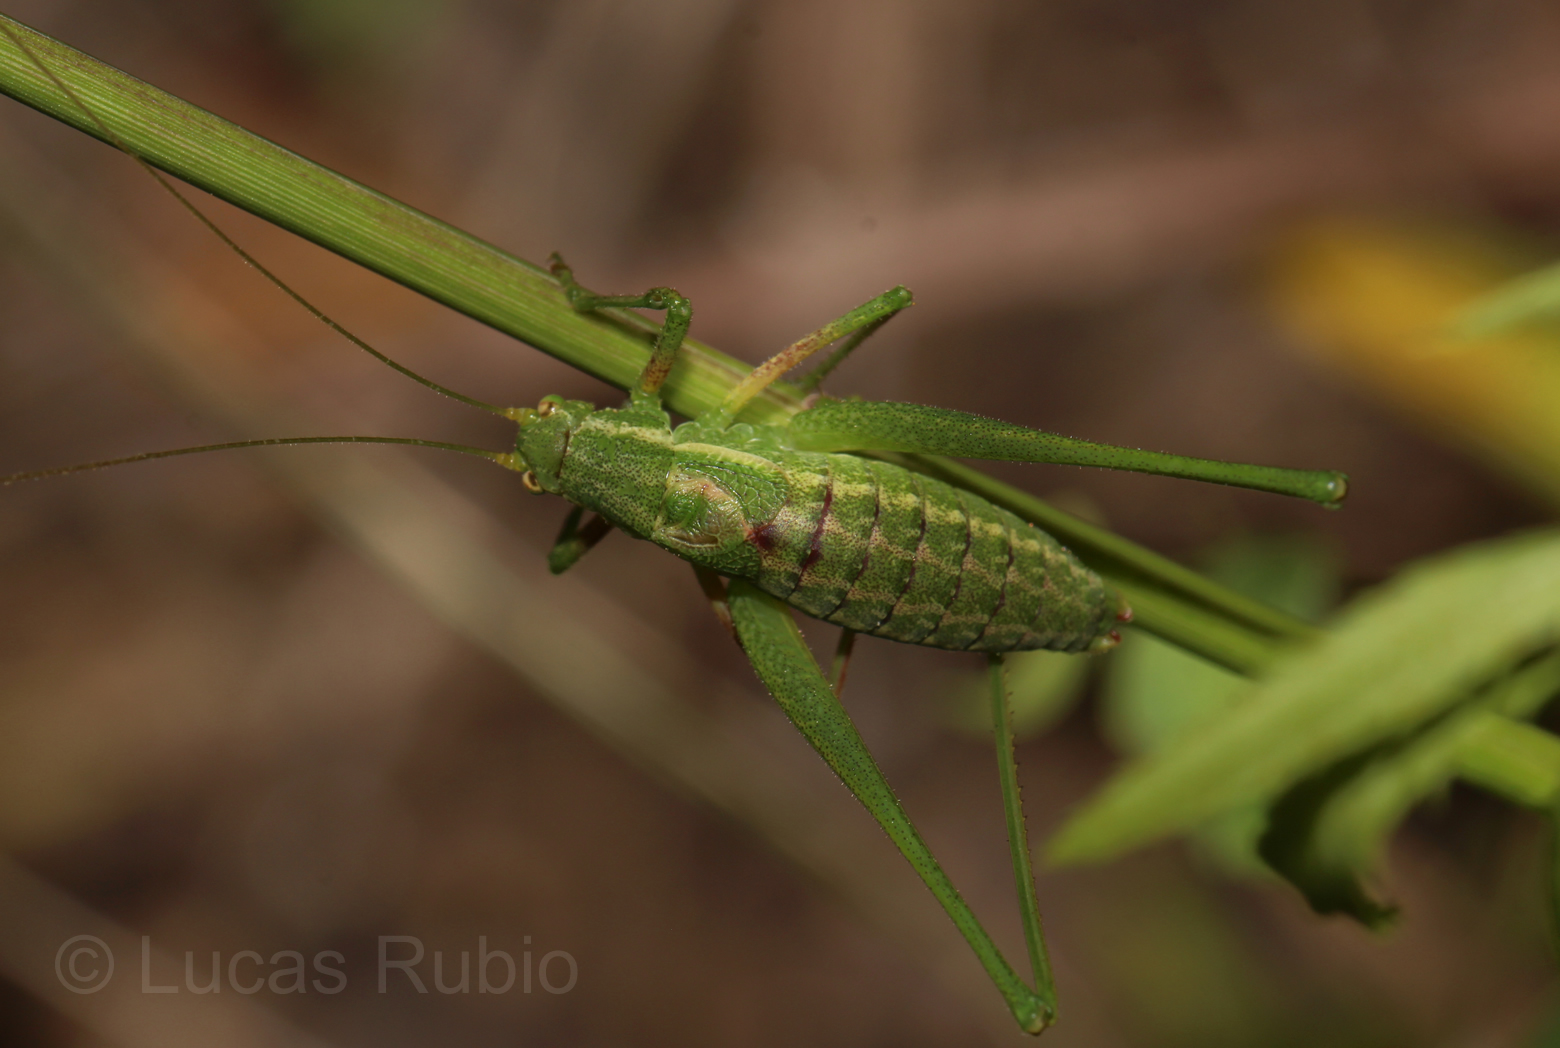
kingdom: Animalia
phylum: Arthropoda
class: Insecta
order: Orthoptera
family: Tettigoniidae
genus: Anisophya
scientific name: Anisophya punctinervis
